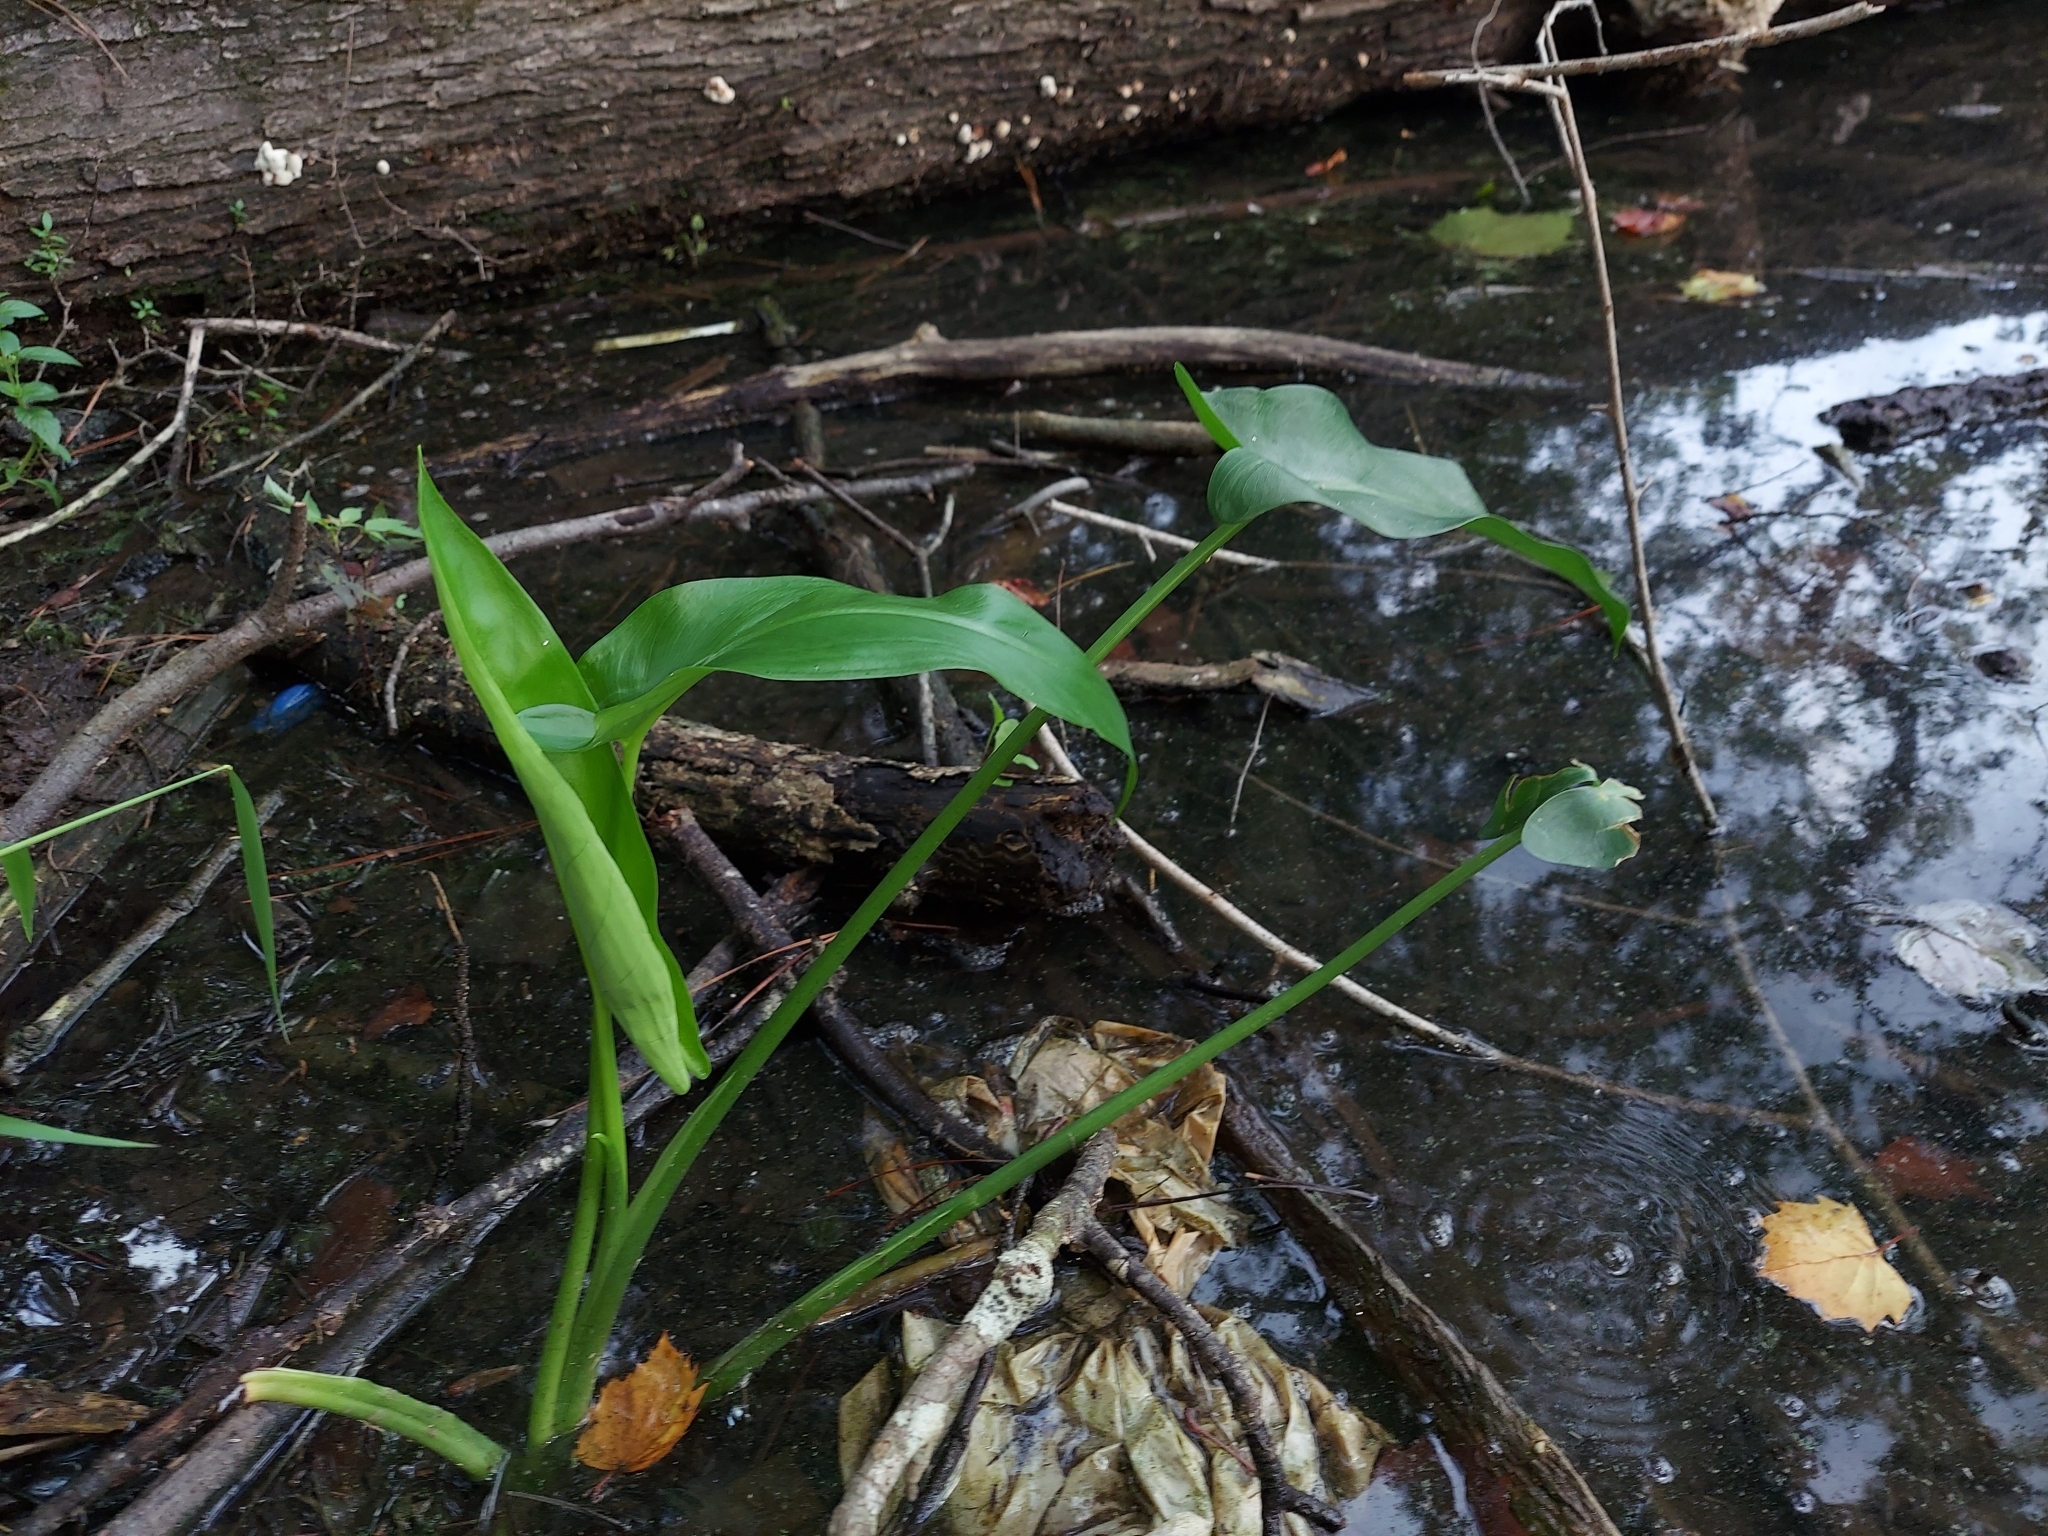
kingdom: Plantae
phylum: Tracheophyta
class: Liliopsida
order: Commelinales
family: Pontederiaceae
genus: Pontederia
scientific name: Pontederia cordata
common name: Pickerelweed
